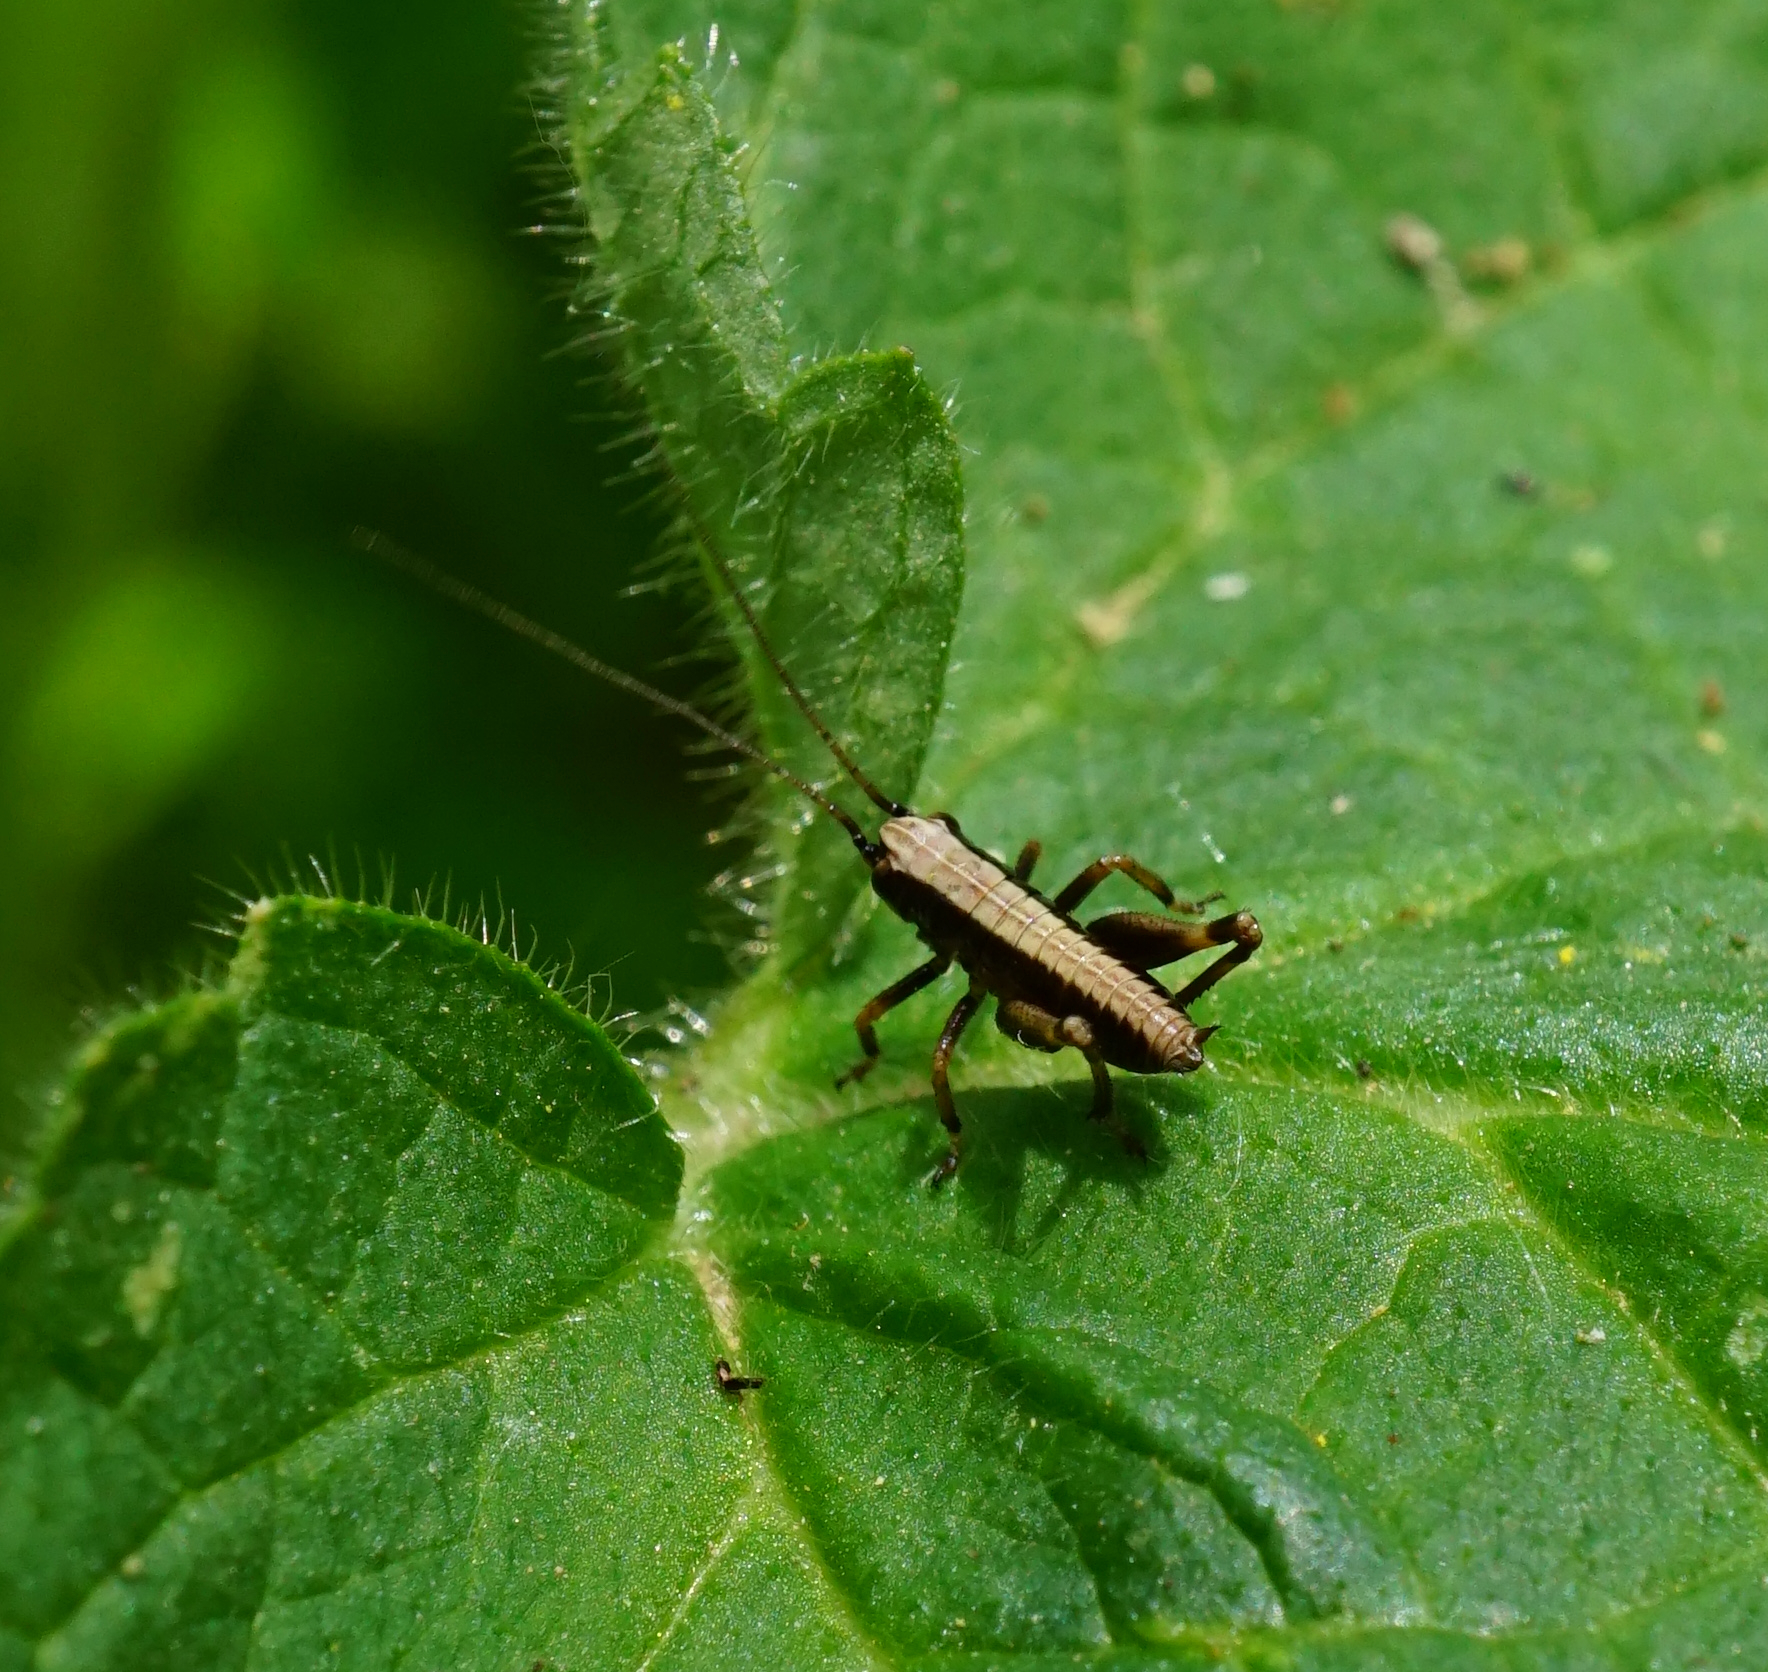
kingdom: Animalia
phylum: Arthropoda
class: Insecta
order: Orthoptera
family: Tettigoniidae
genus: Pholidoptera
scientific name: Pholidoptera griseoaptera
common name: Dark bush-cricket
